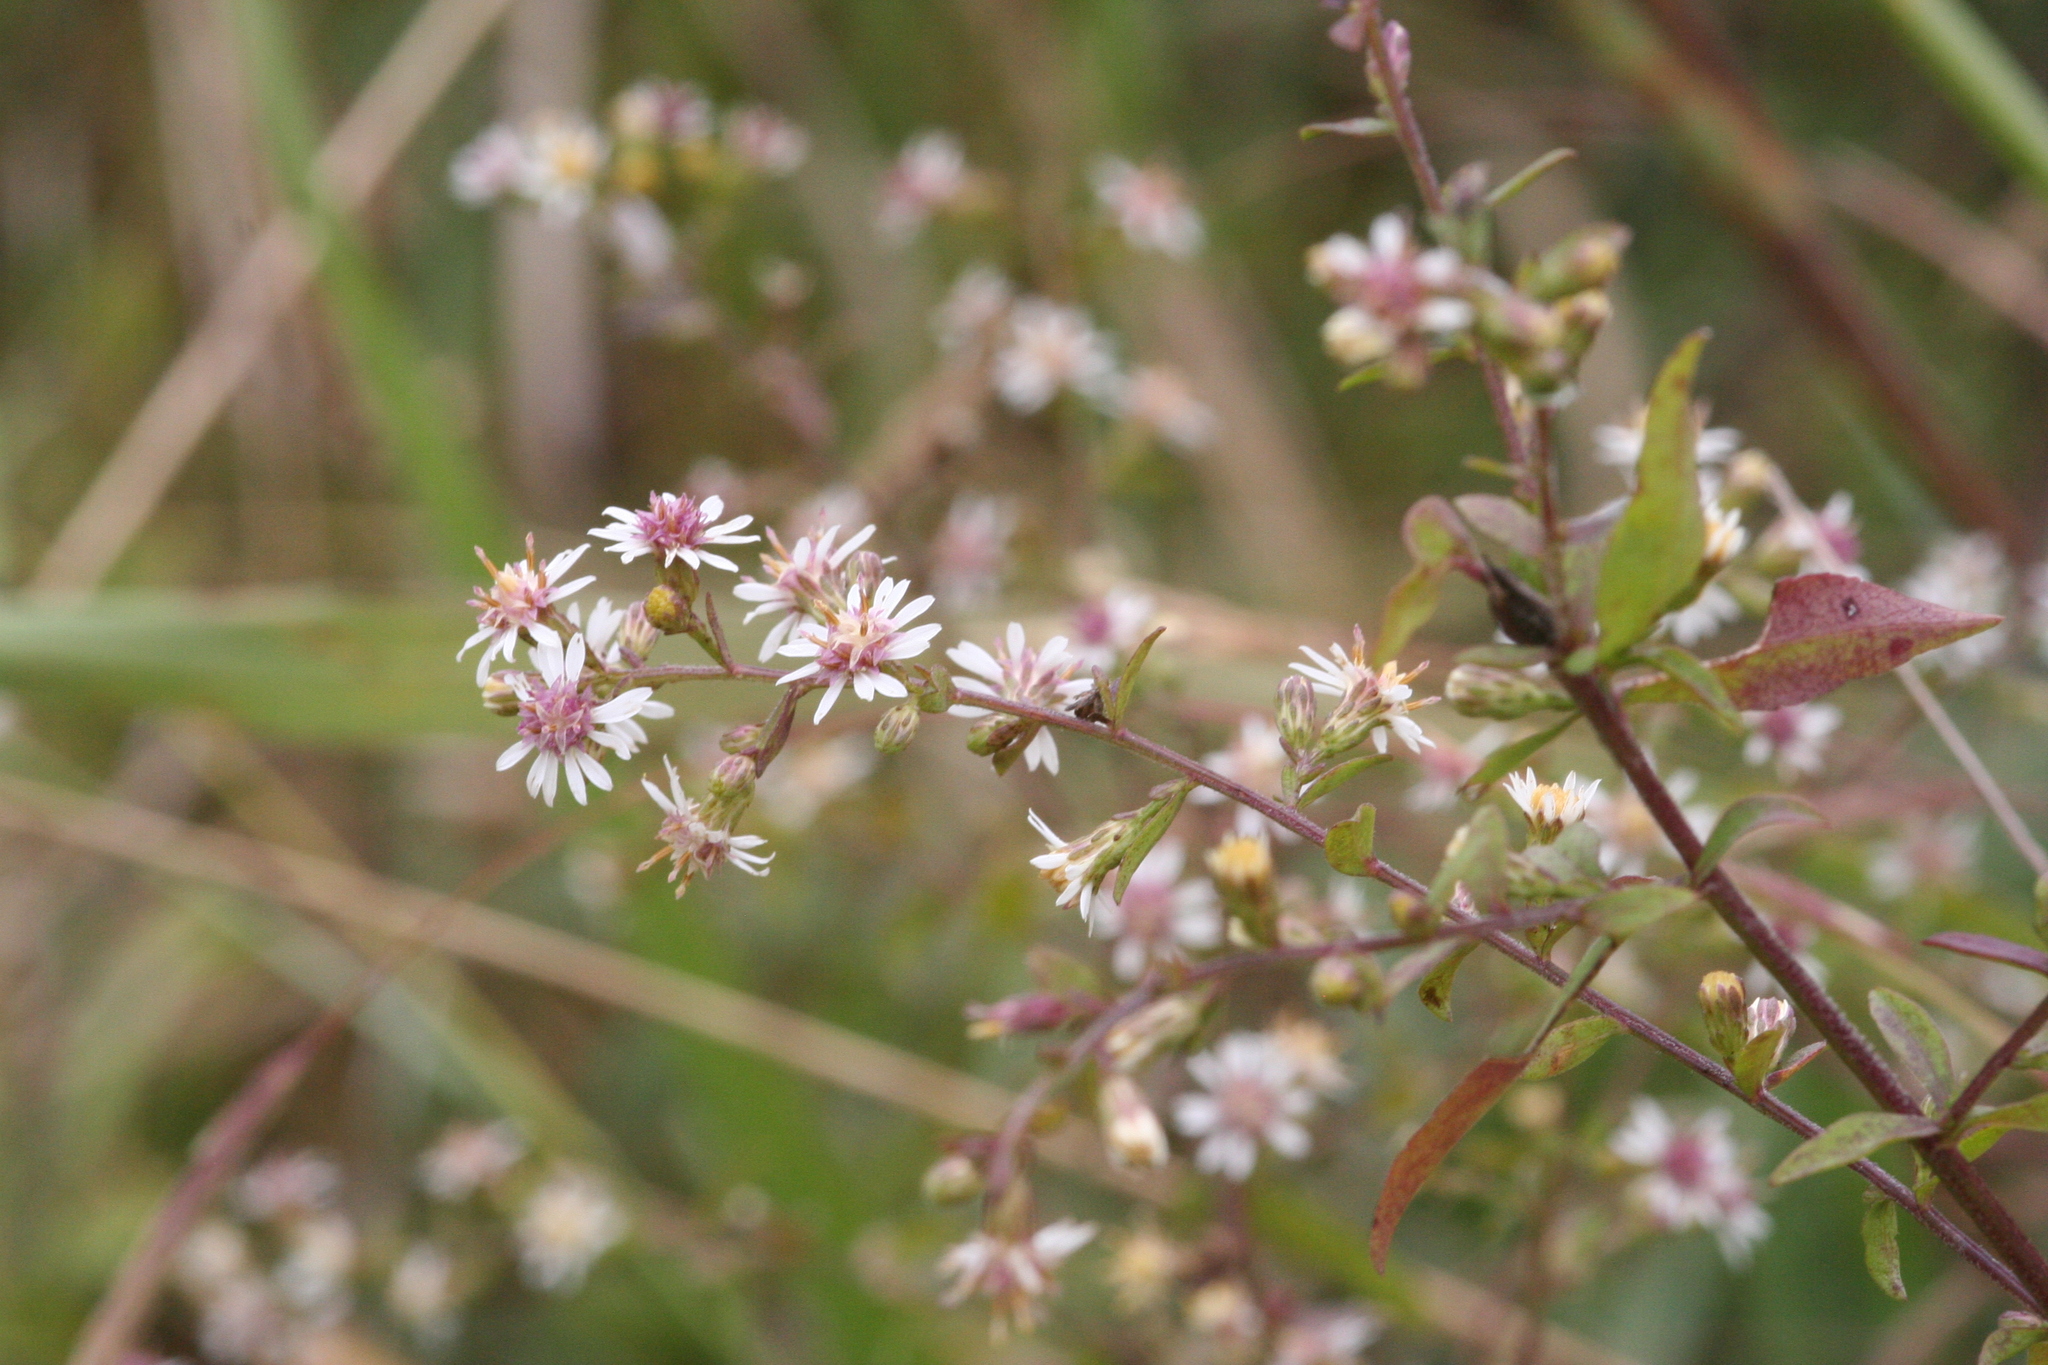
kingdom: Plantae
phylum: Tracheophyta
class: Magnoliopsida
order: Asterales
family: Asteraceae
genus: Symphyotrichum
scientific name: Symphyotrichum lateriflorum
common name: Calico aster
